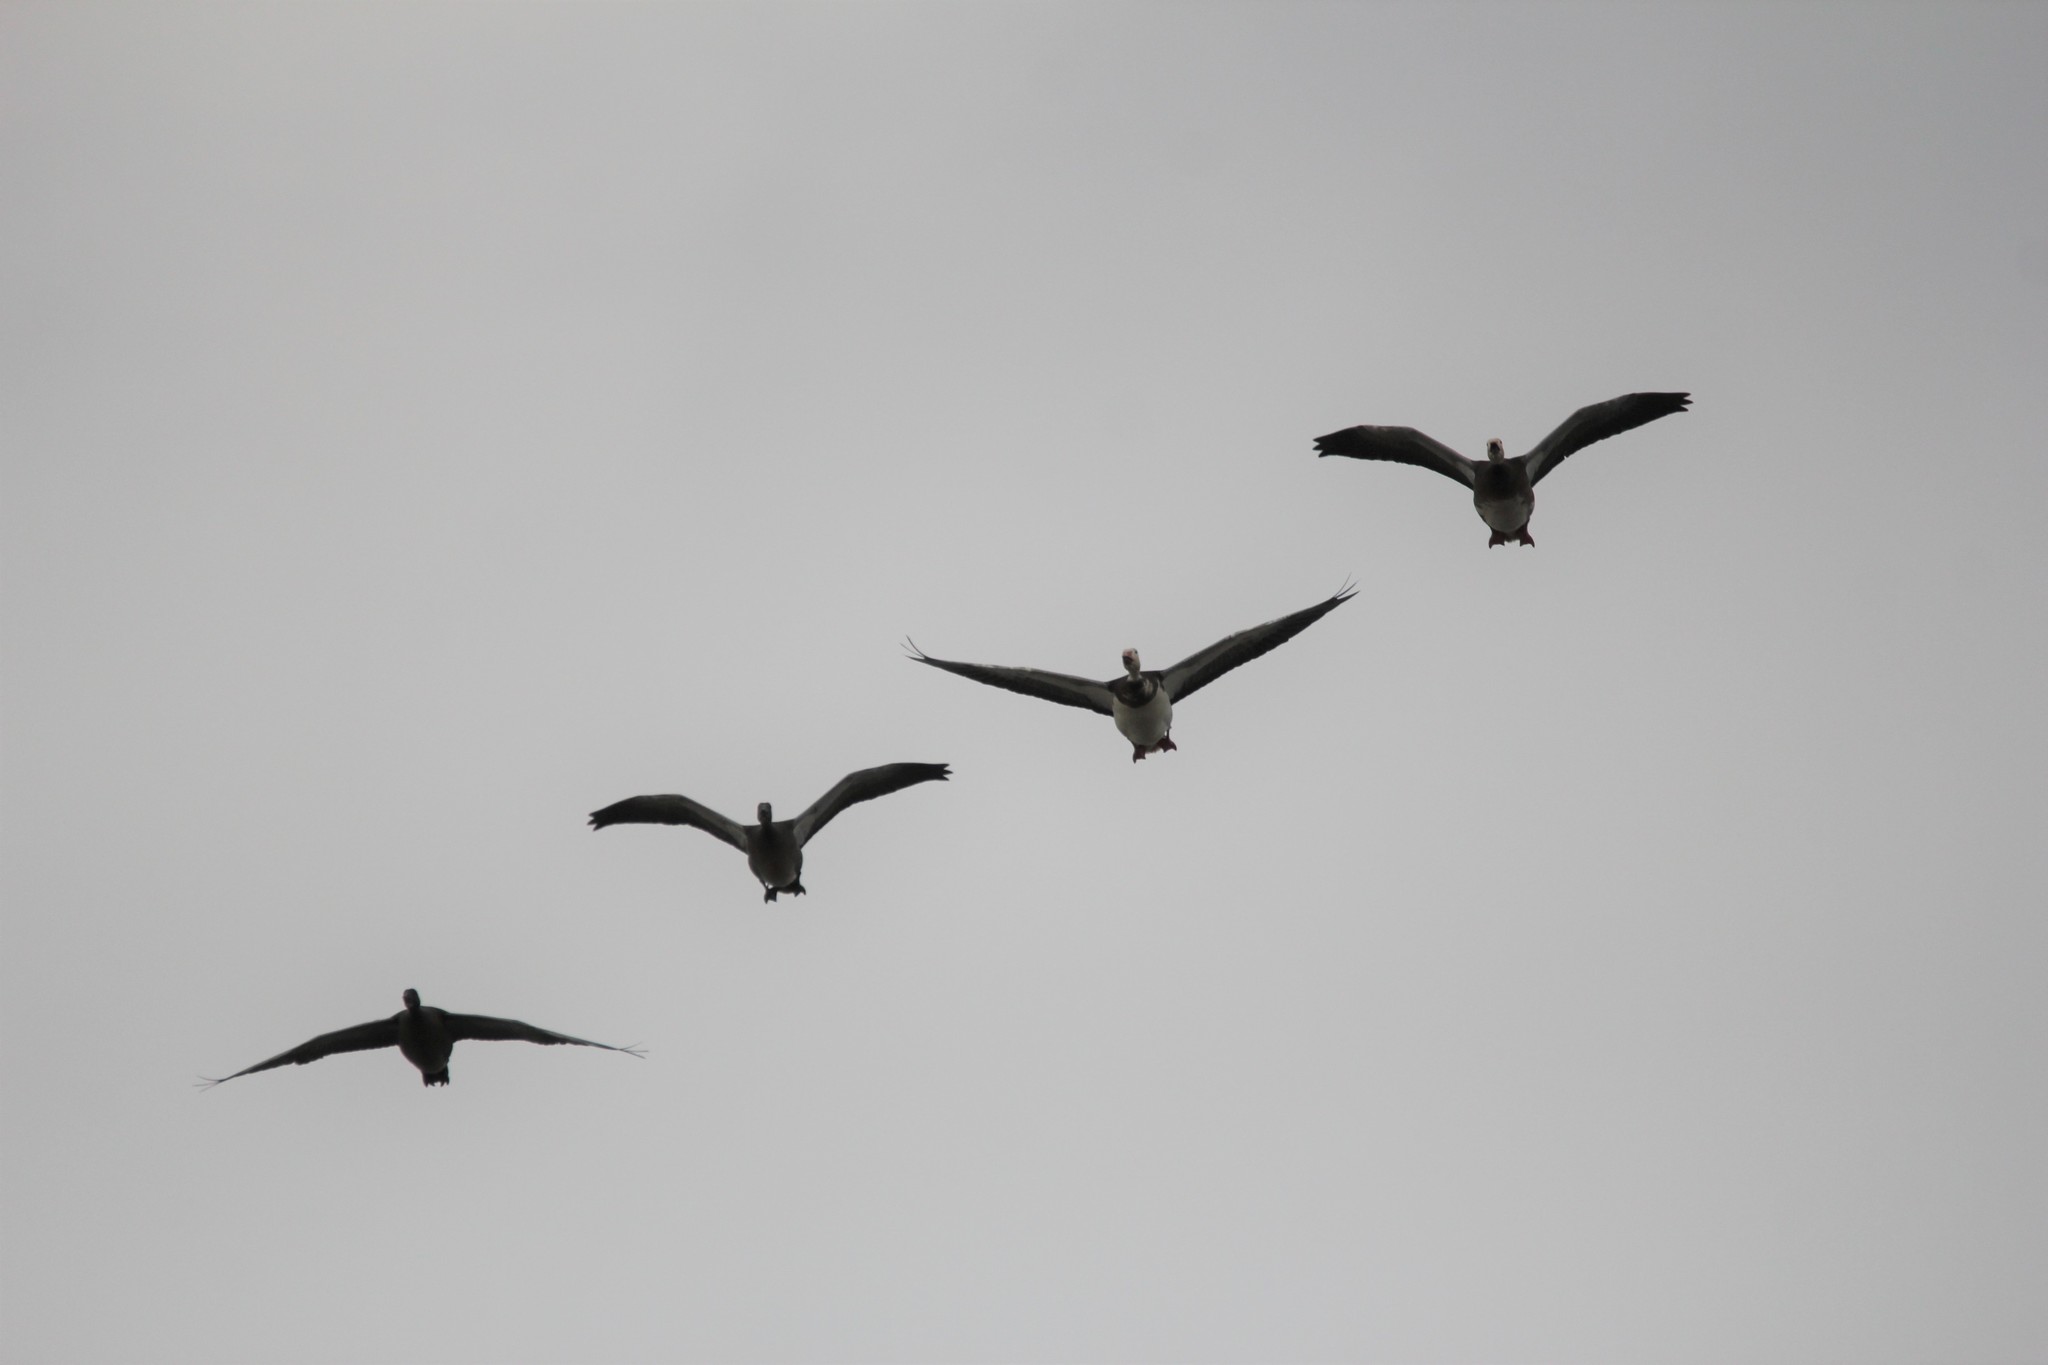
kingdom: Animalia
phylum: Chordata
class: Aves
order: Anseriformes
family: Anatidae
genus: Anser
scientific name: Anser caerulescens
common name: Snow goose
